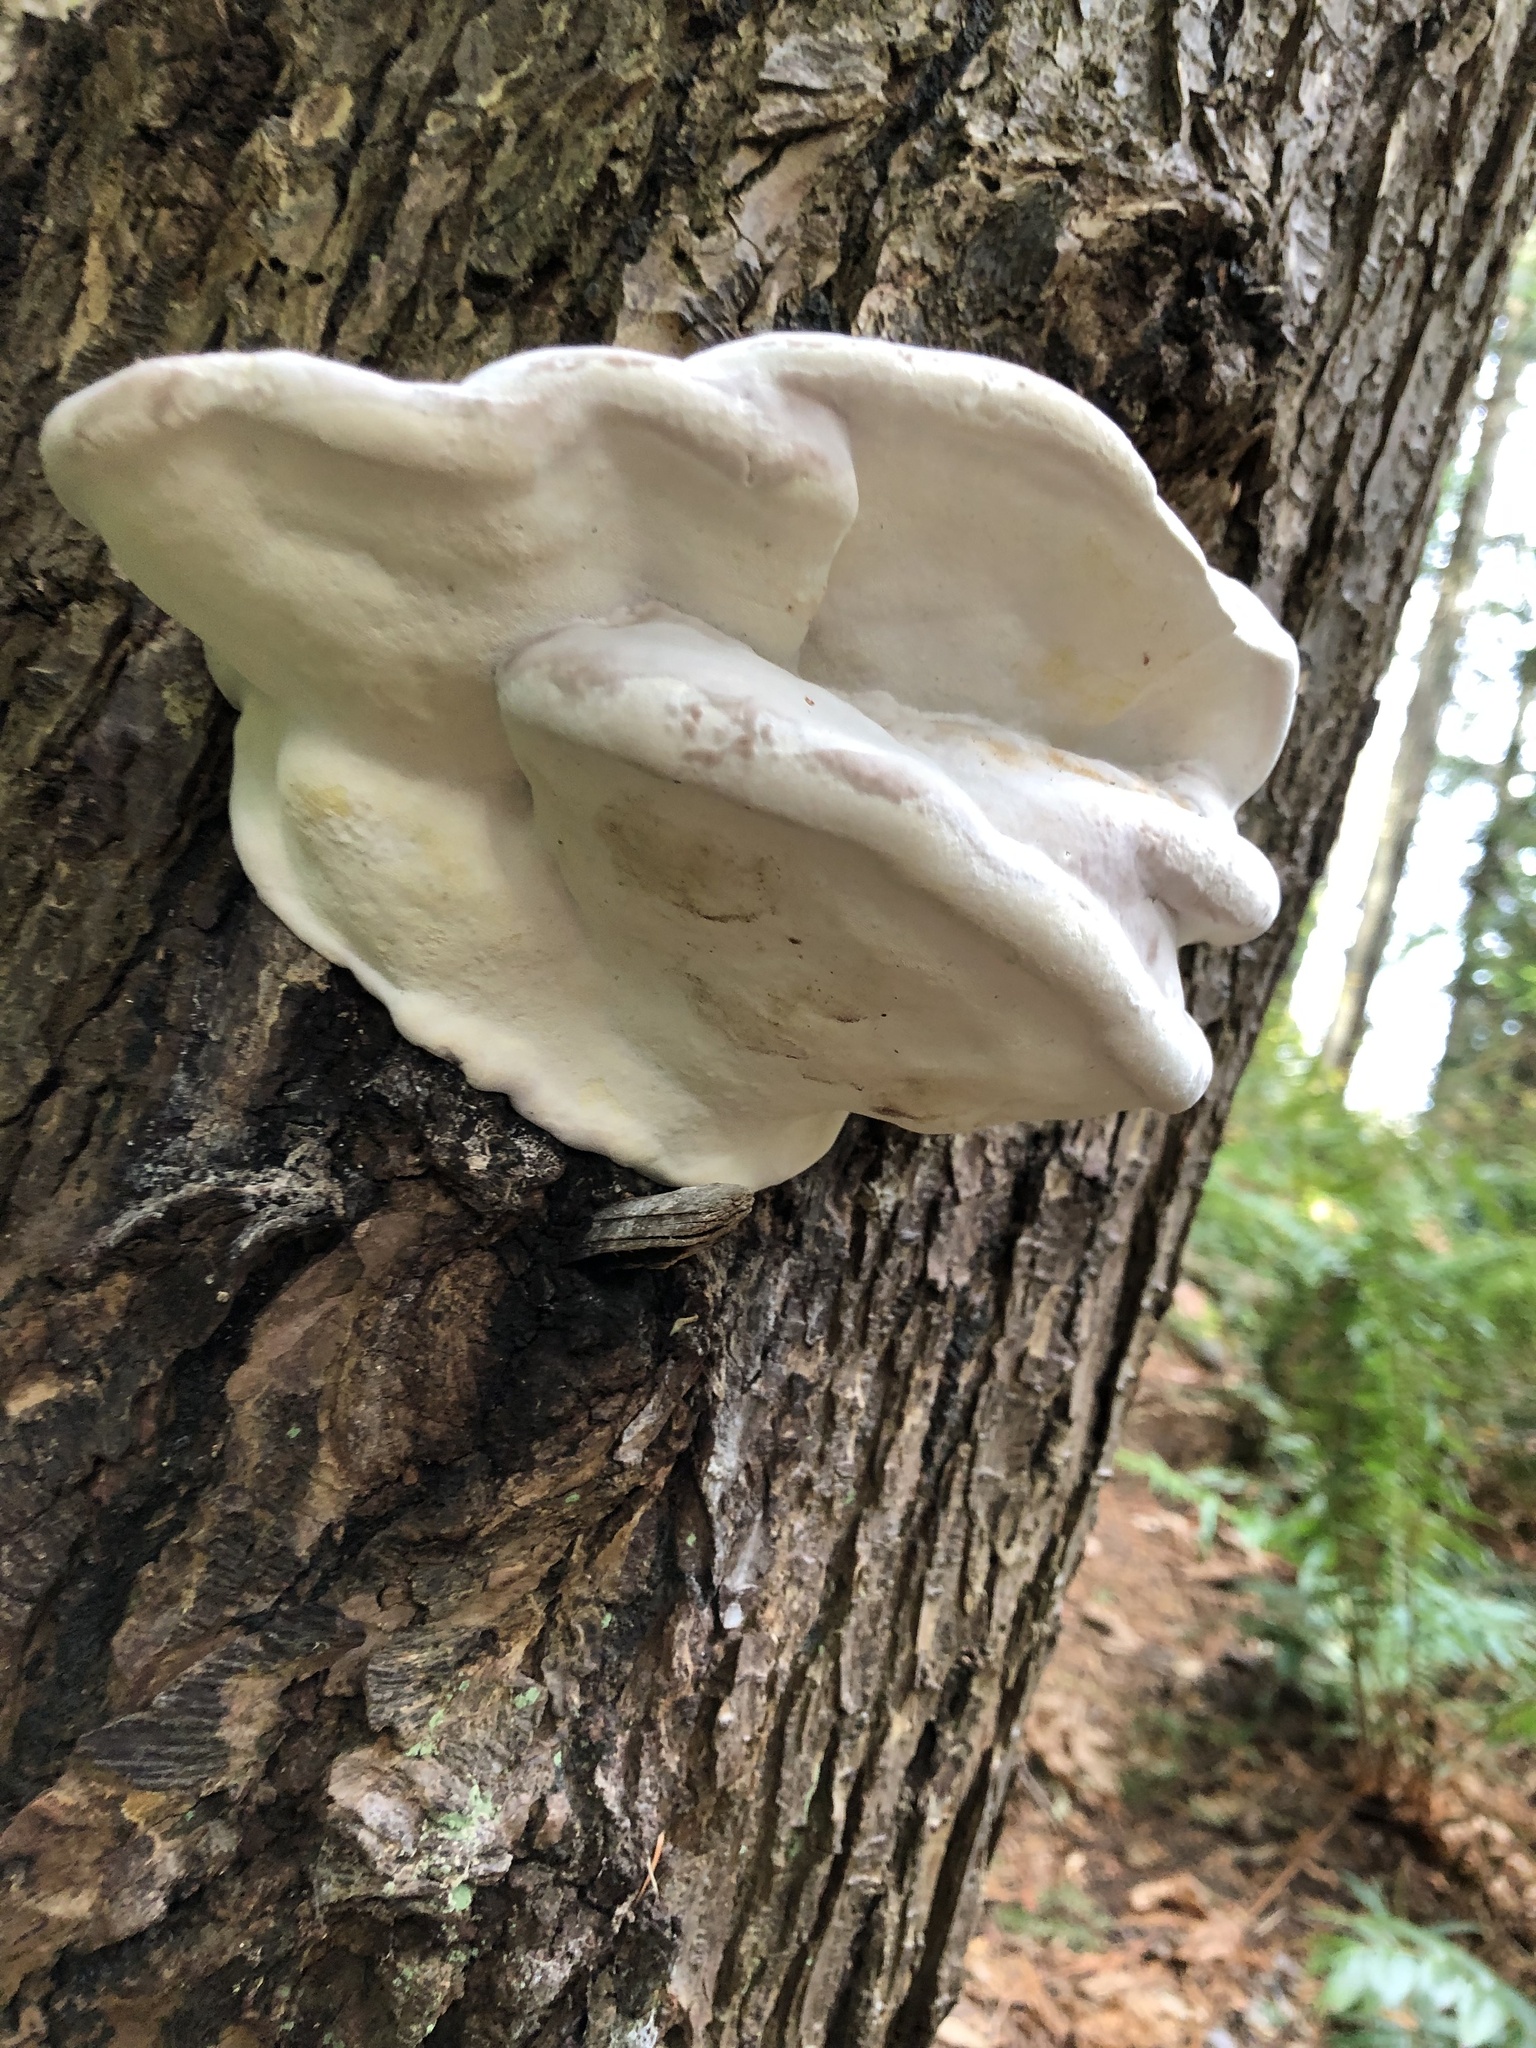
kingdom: Fungi
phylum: Basidiomycota
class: Agaricomycetes
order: Polyporales
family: Fomitopsidaceae
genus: Fomitopsis
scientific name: Fomitopsis mounceae
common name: Northern red belt
